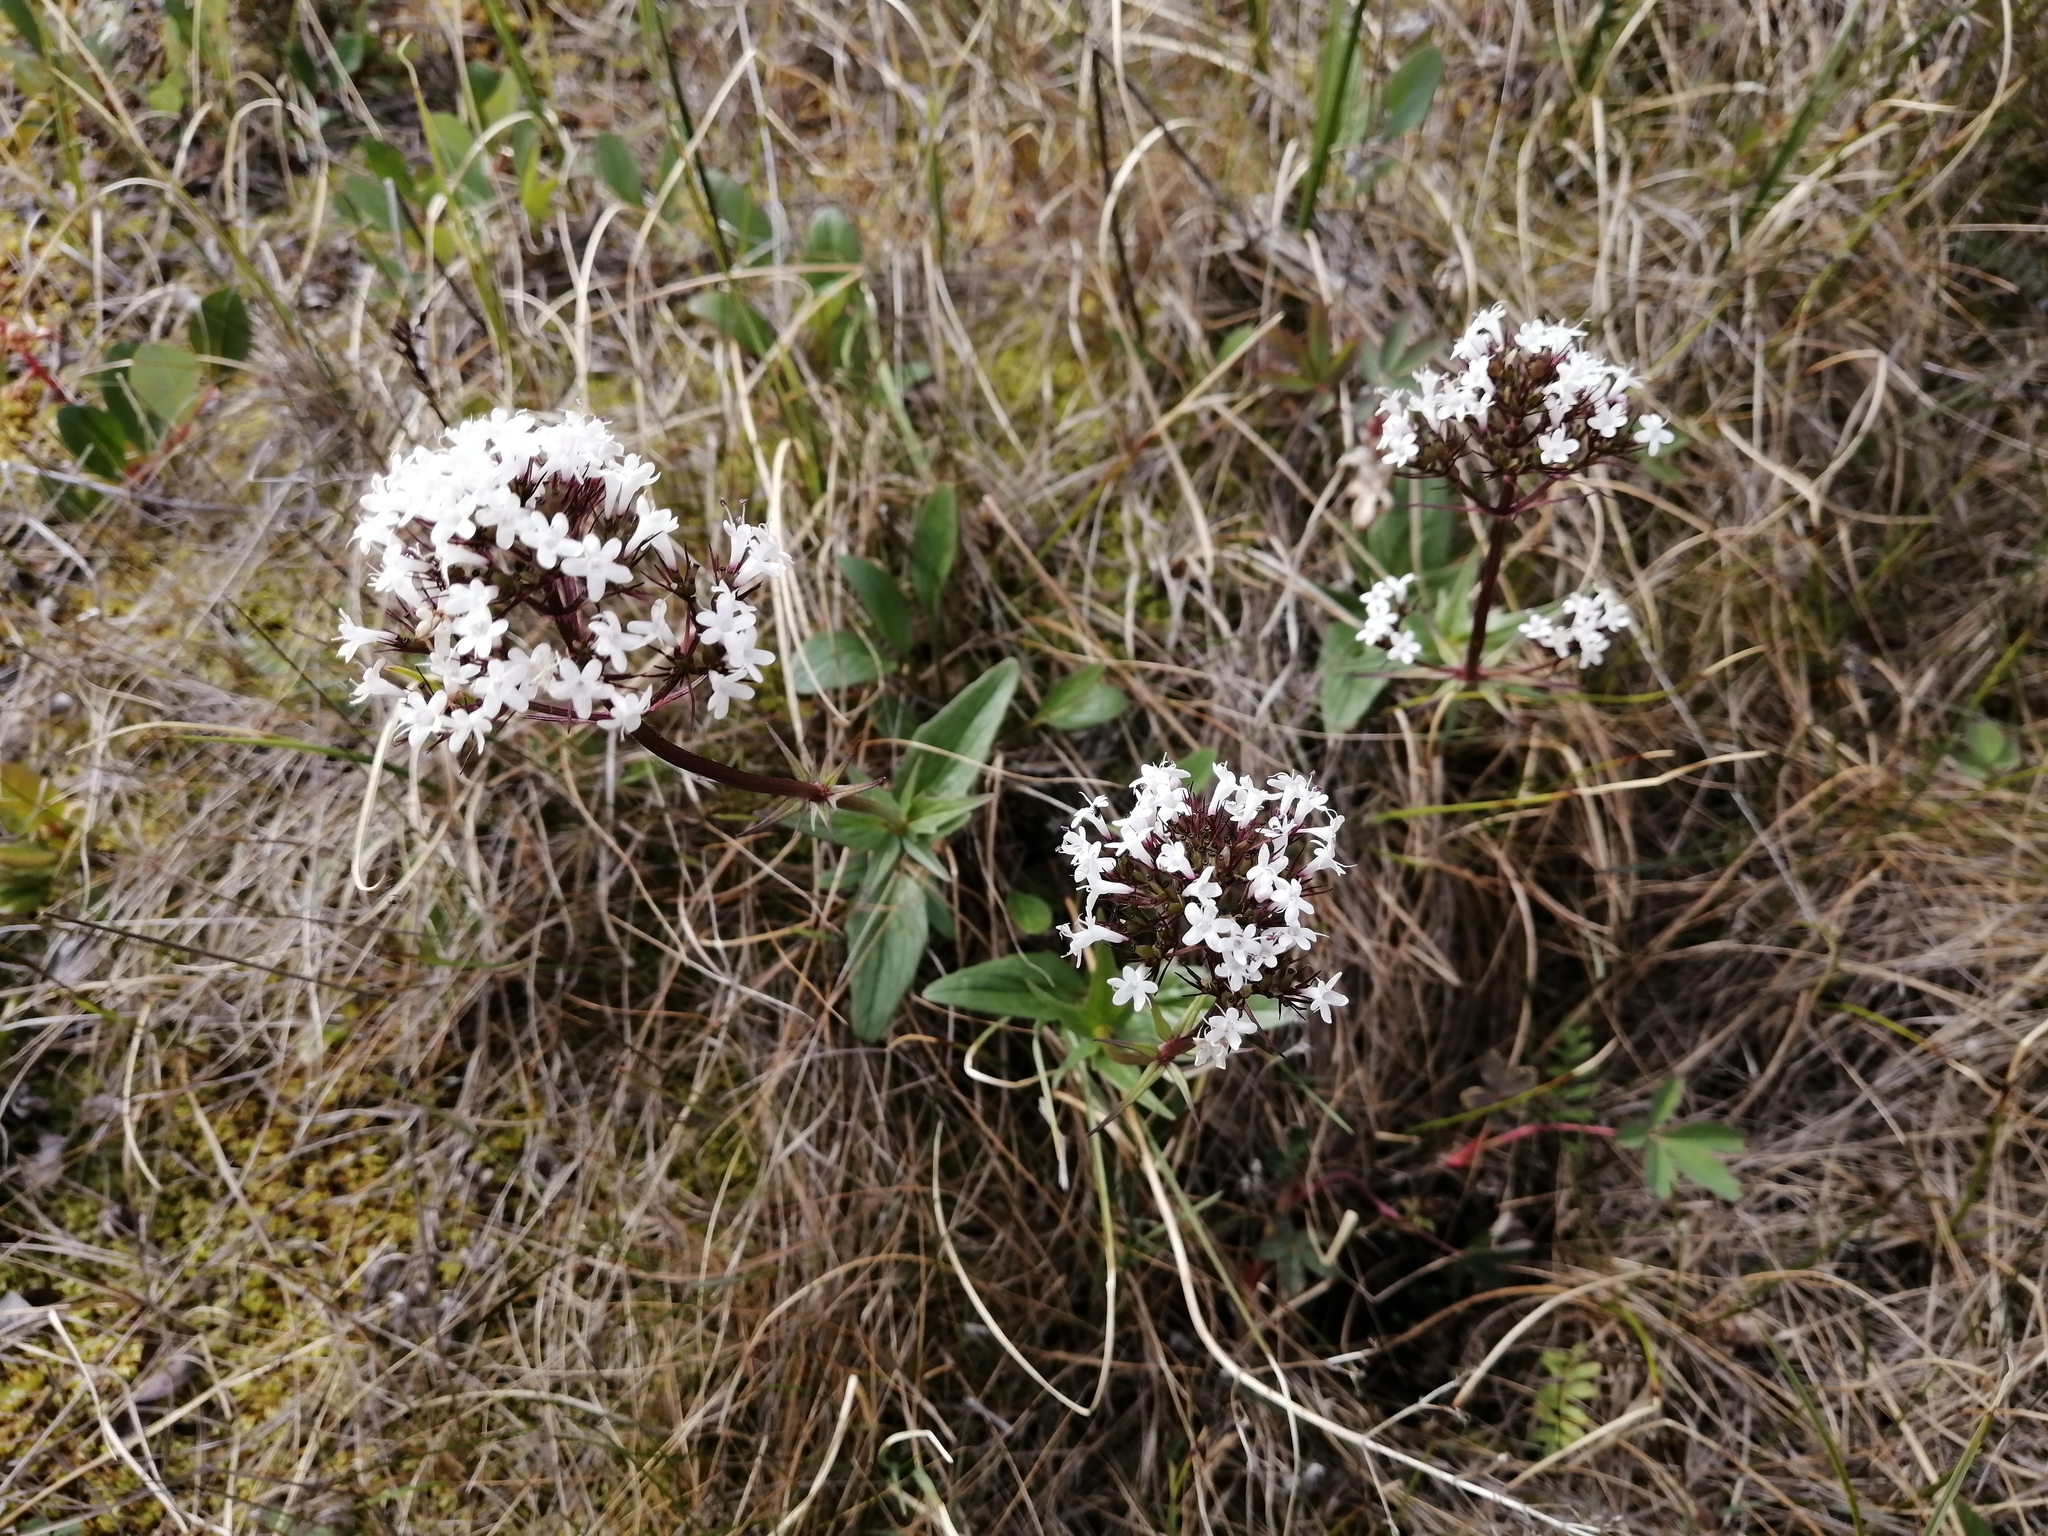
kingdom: Plantae
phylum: Tracheophyta
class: Magnoliopsida
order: Dipsacales
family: Caprifoliaceae
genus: Valeriana
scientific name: Valeriana capitata
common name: Capitate valerian
